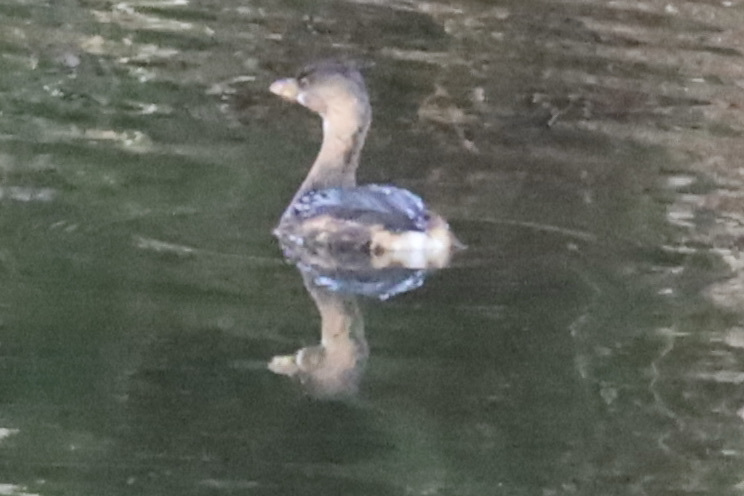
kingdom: Animalia
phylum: Chordata
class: Aves
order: Podicipediformes
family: Podicipedidae
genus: Podilymbus
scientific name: Podilymbus podiceps
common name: Pied-billed grebe
